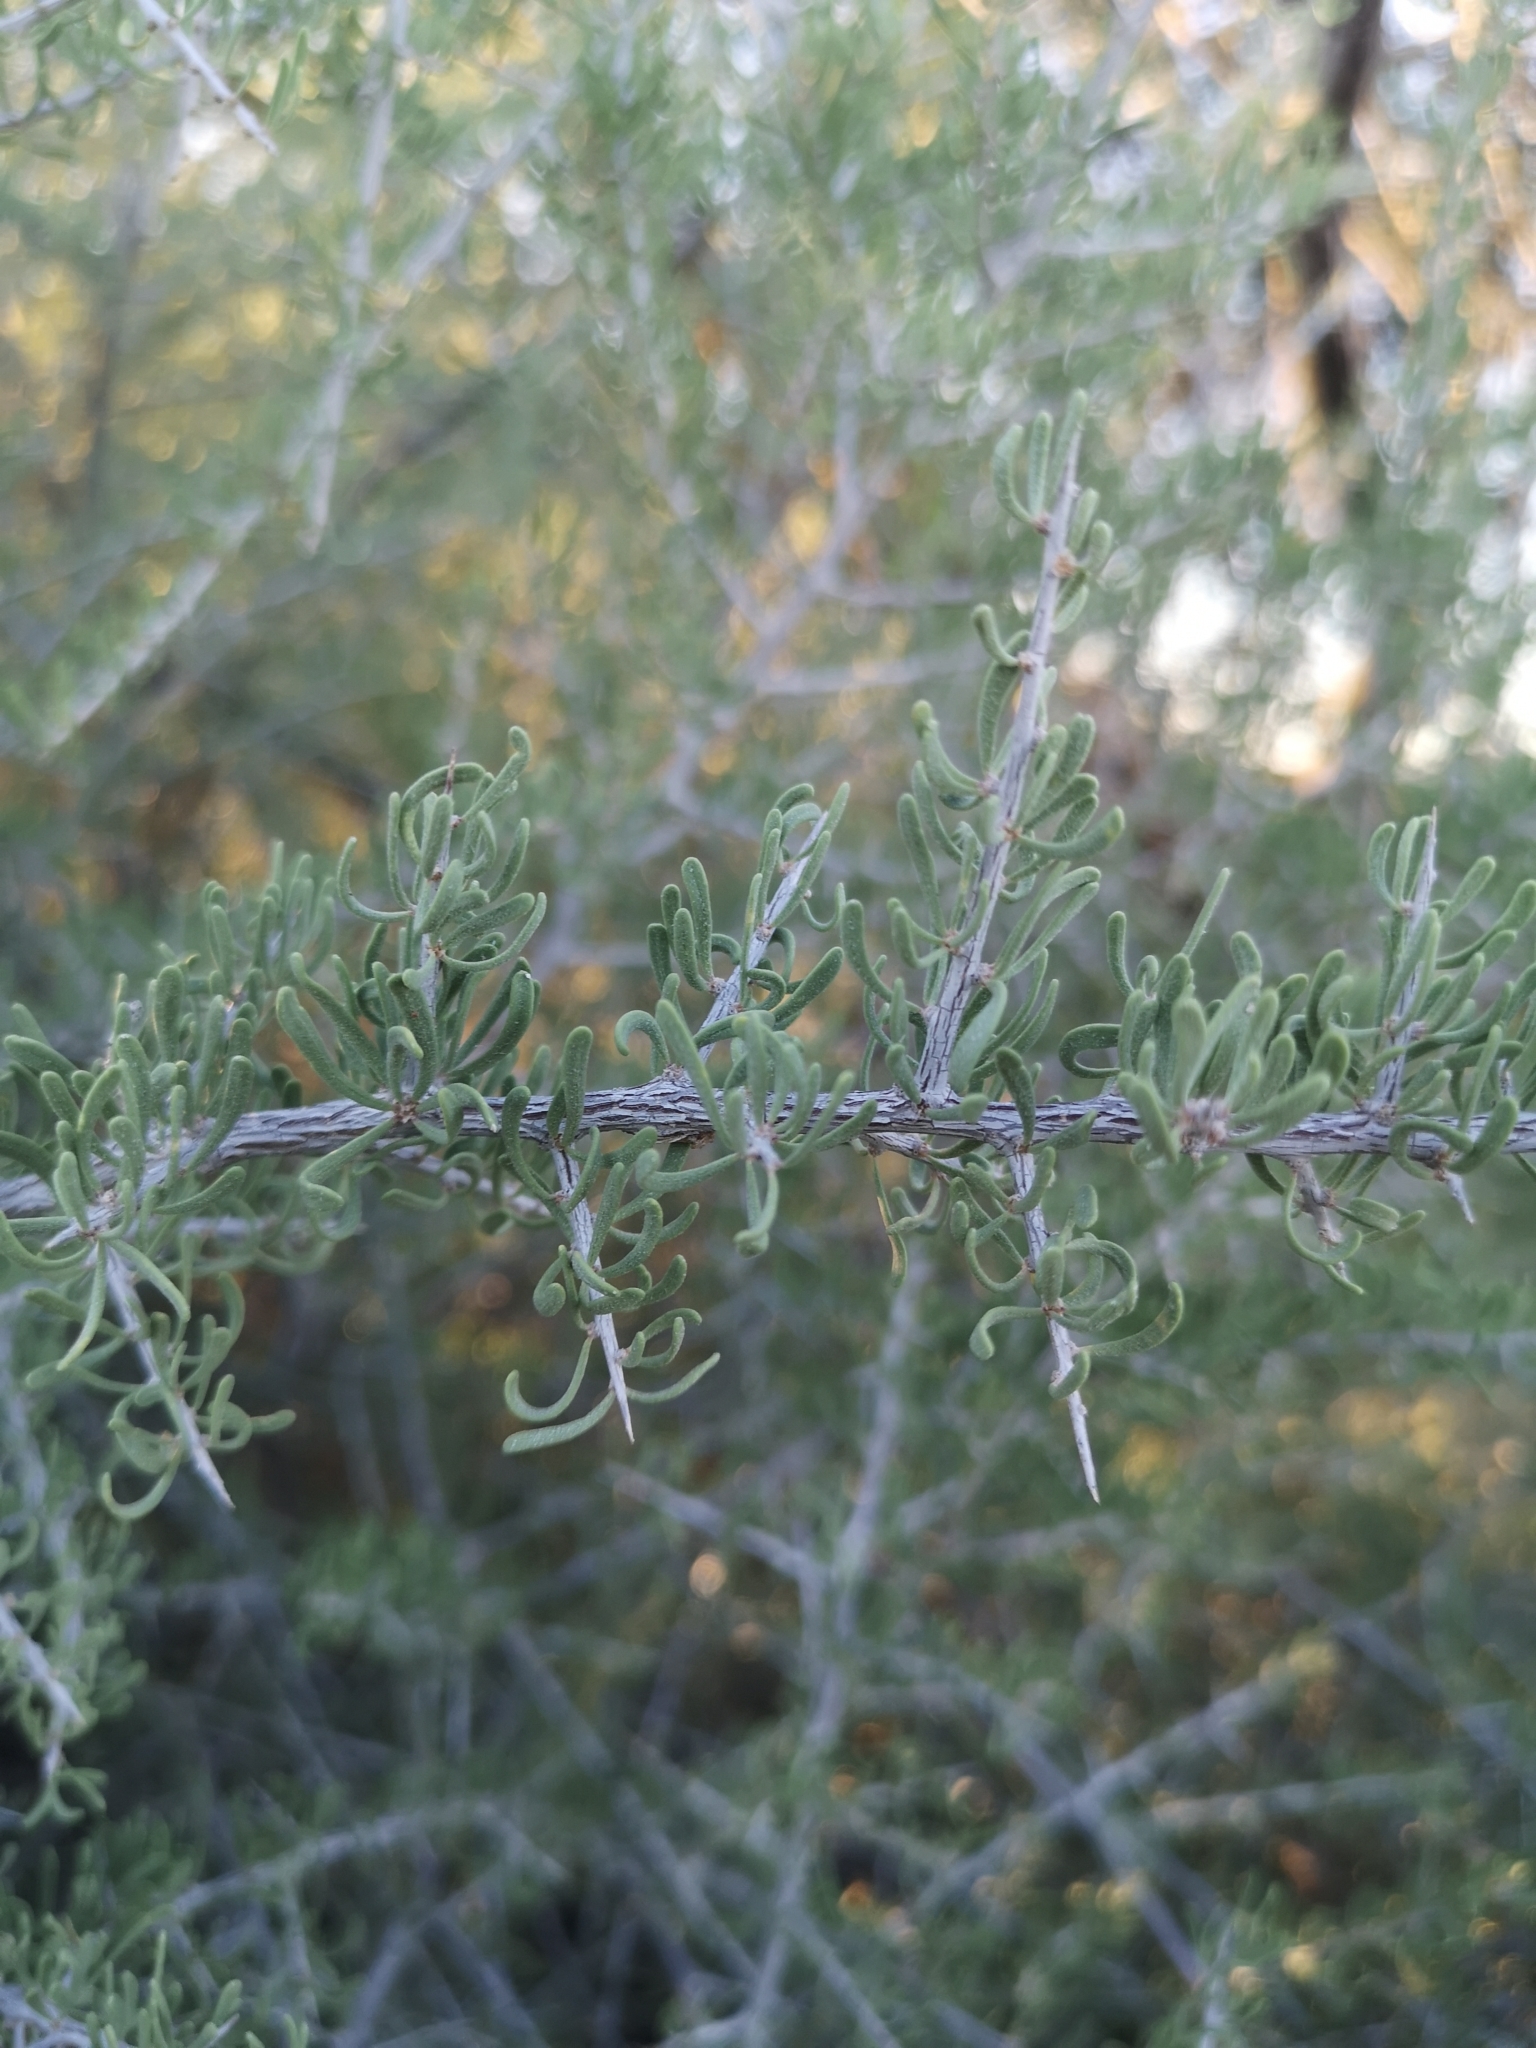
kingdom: Plantae
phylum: Tracheophyta
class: Magnoliopsida
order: Caryophyllales
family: Nyctaginaceae
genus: Phaeoptilum
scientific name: Phaeoptilum spinosum
